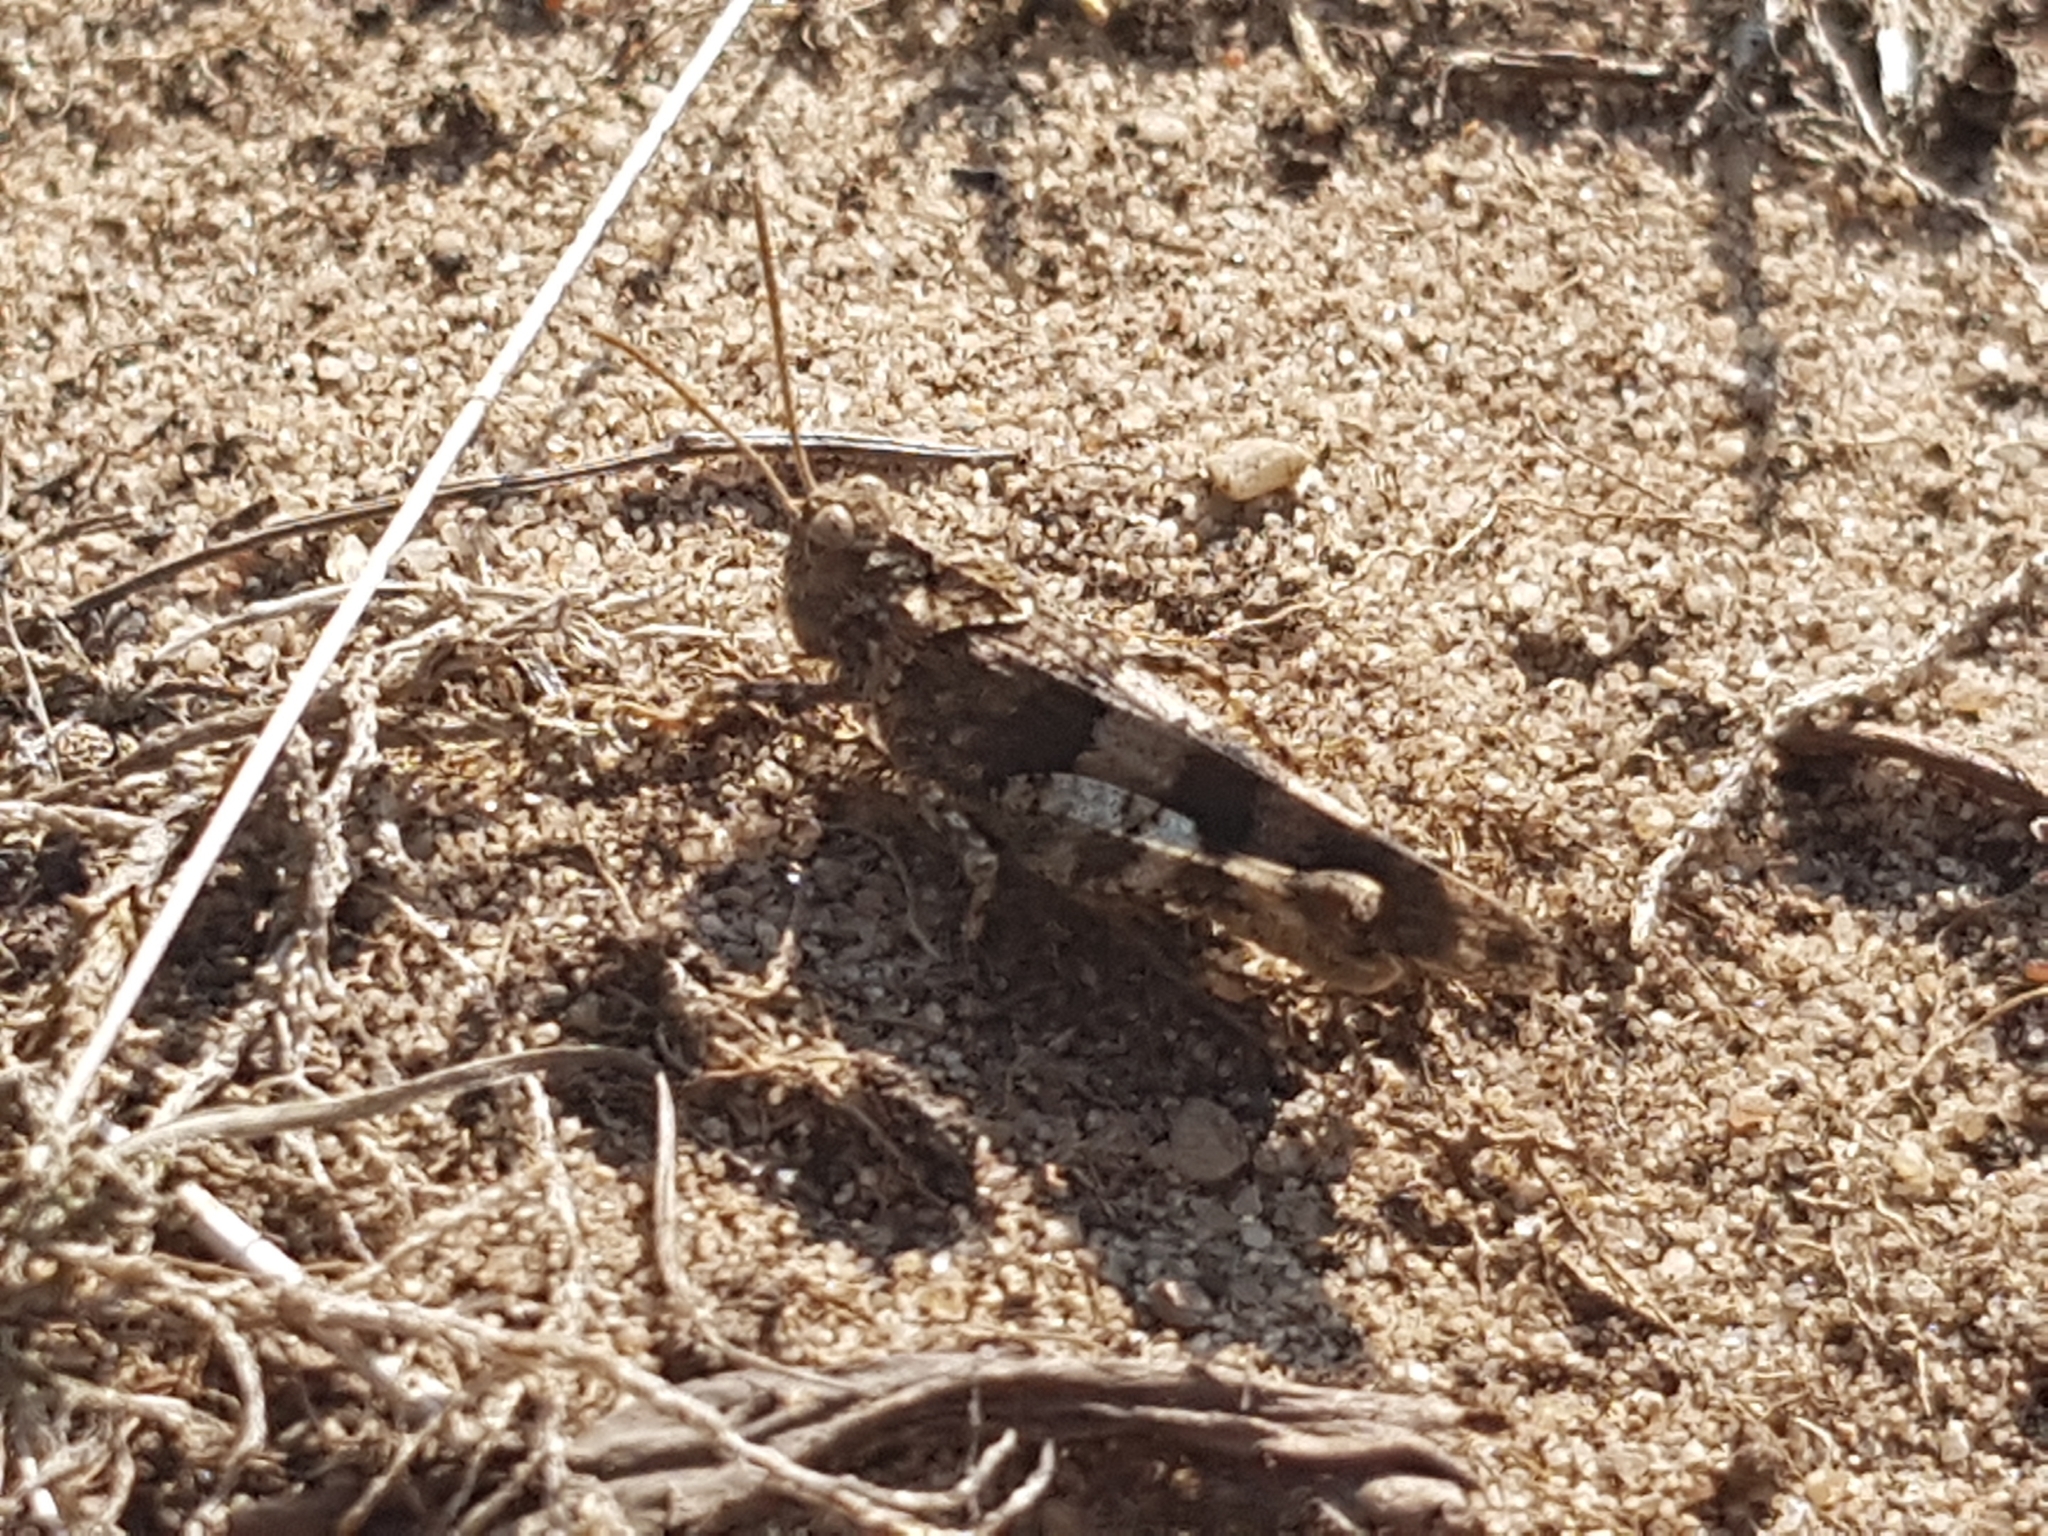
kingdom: Animalia
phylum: Arthropoda
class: Insecta
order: Orthoptera
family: Acrididae
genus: Oedipoda
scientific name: Oedipoda caerulescens
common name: Blue-winged grasshopper
